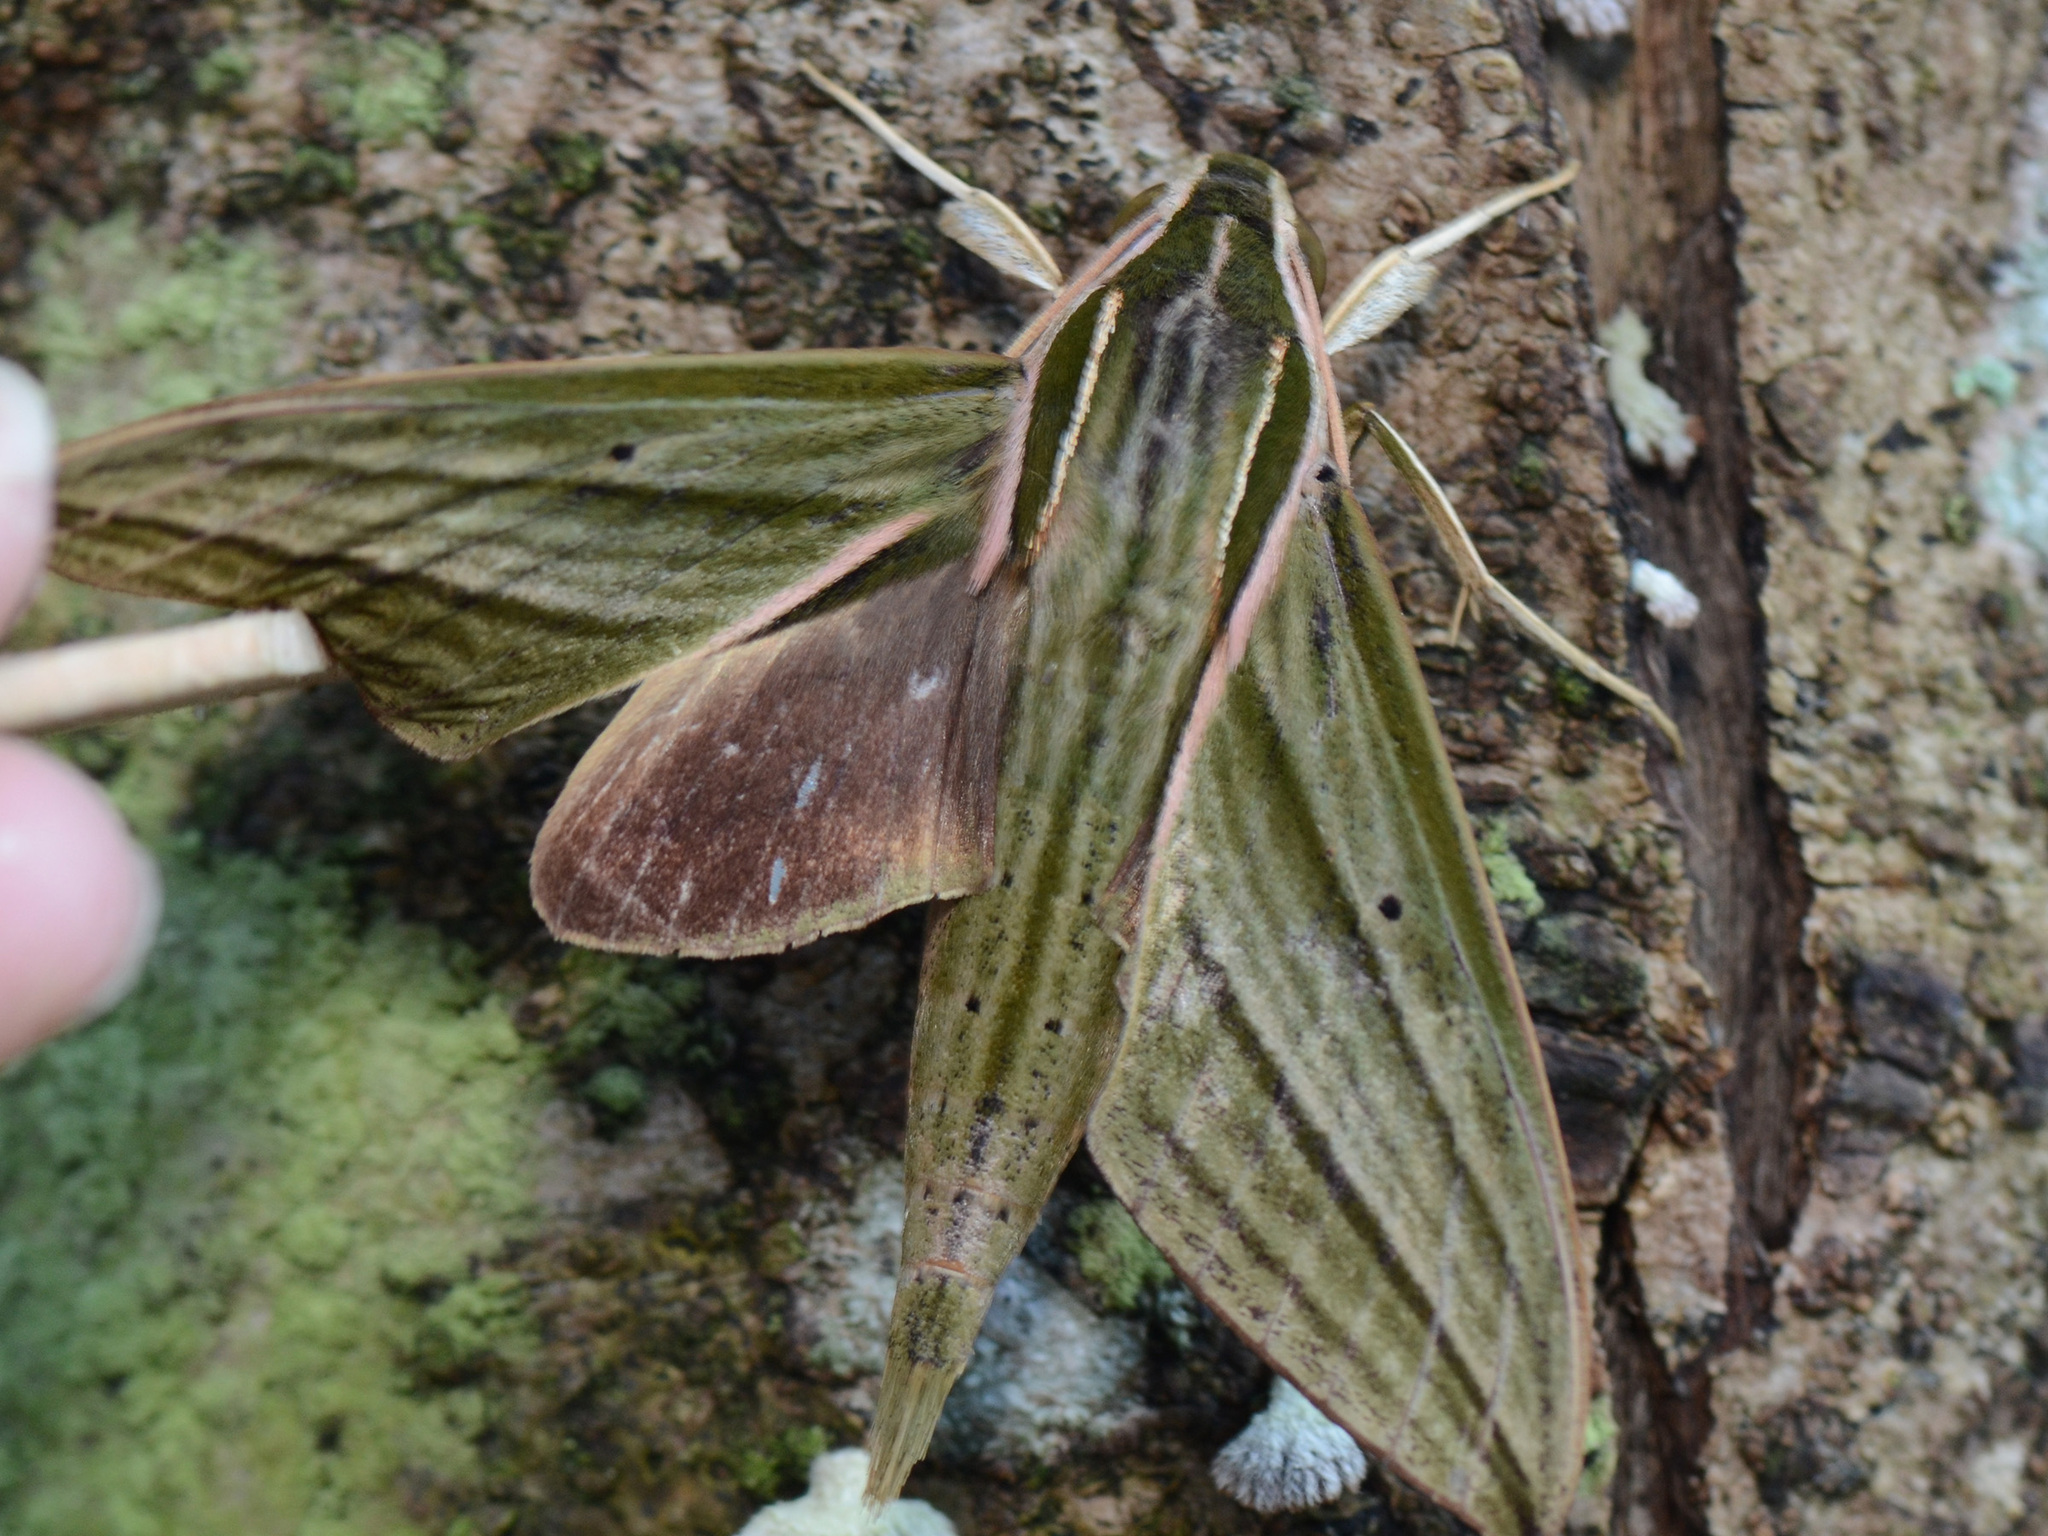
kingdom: Animalia
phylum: Arthropoda
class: Insecta
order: Lepidoptera
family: Sphingidae
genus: Theretra
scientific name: Theretra manilae
